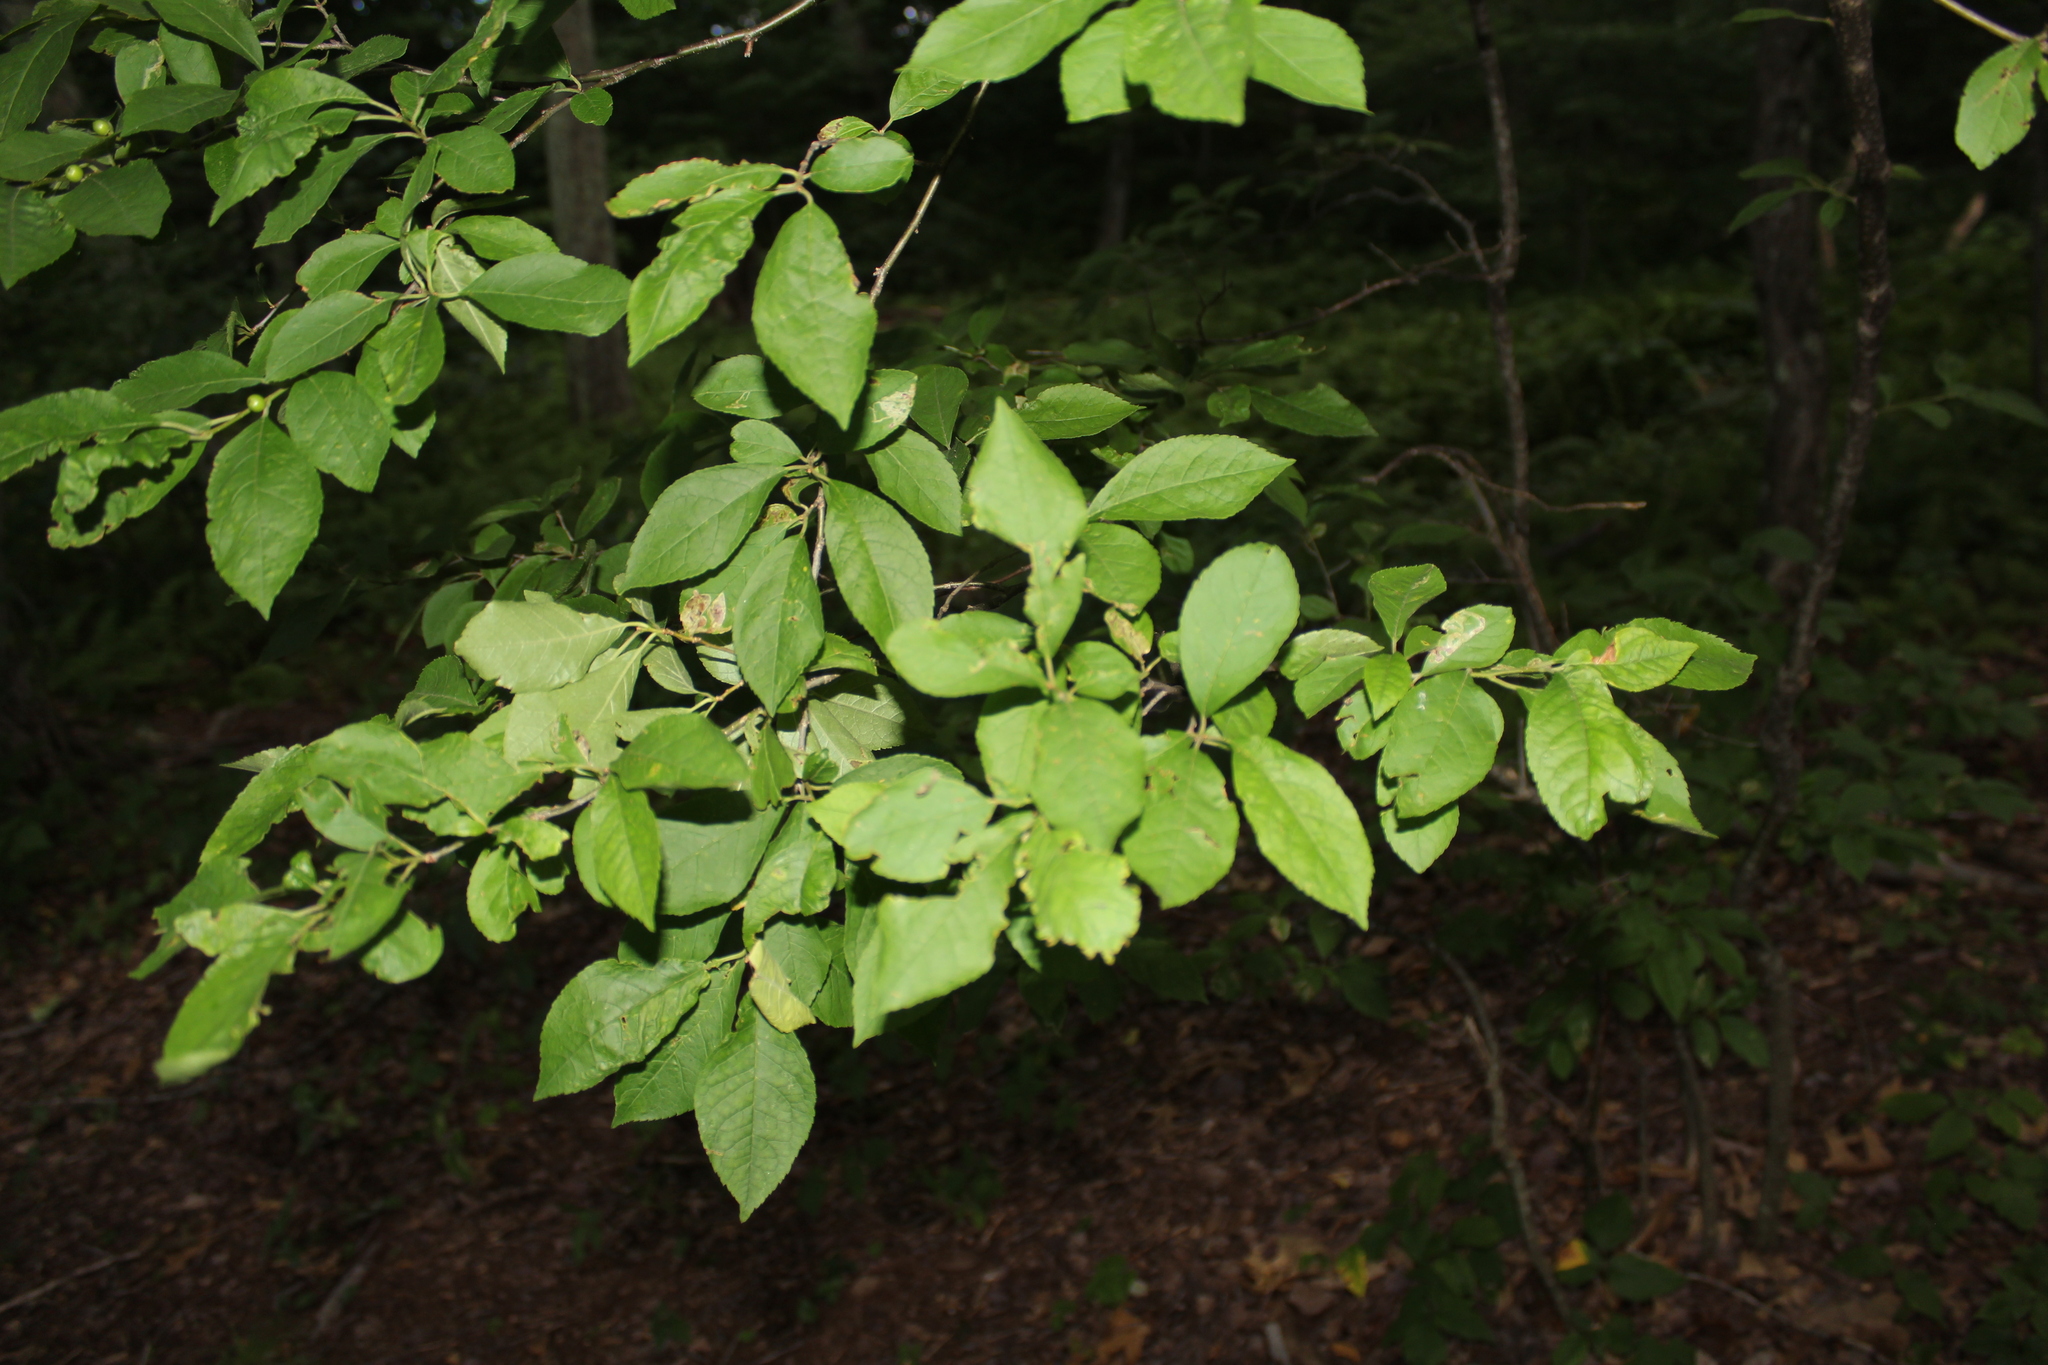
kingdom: Animalia
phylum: Arthropoda
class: Insecta
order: Diptera
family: Agromyzidae
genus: Phytomyza
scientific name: Phytomyza
